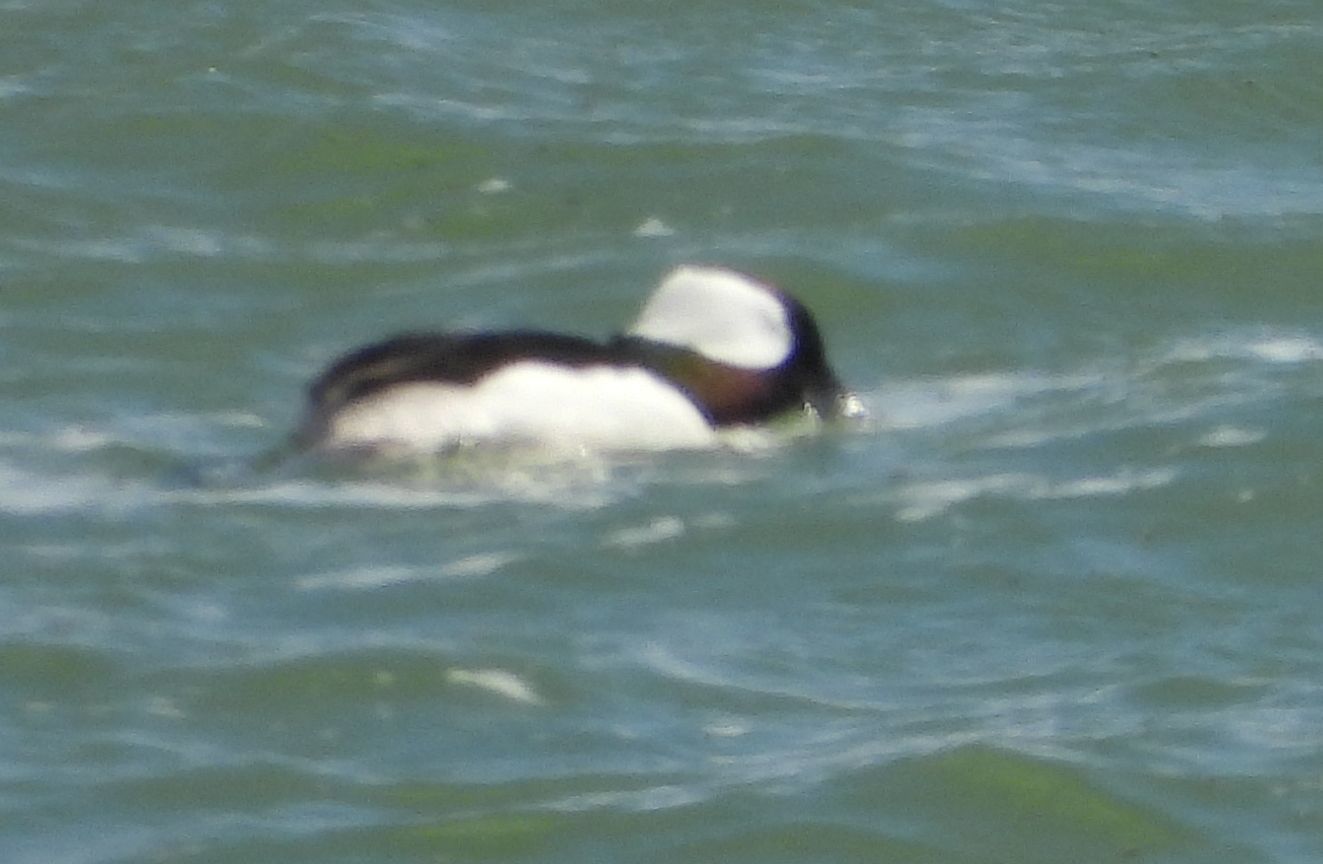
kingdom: Animalia
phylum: Chordata
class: Aves
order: Anseriformes
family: Anatidae
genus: Bucephala
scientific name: Bucephala albeola
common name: Bufflehead
